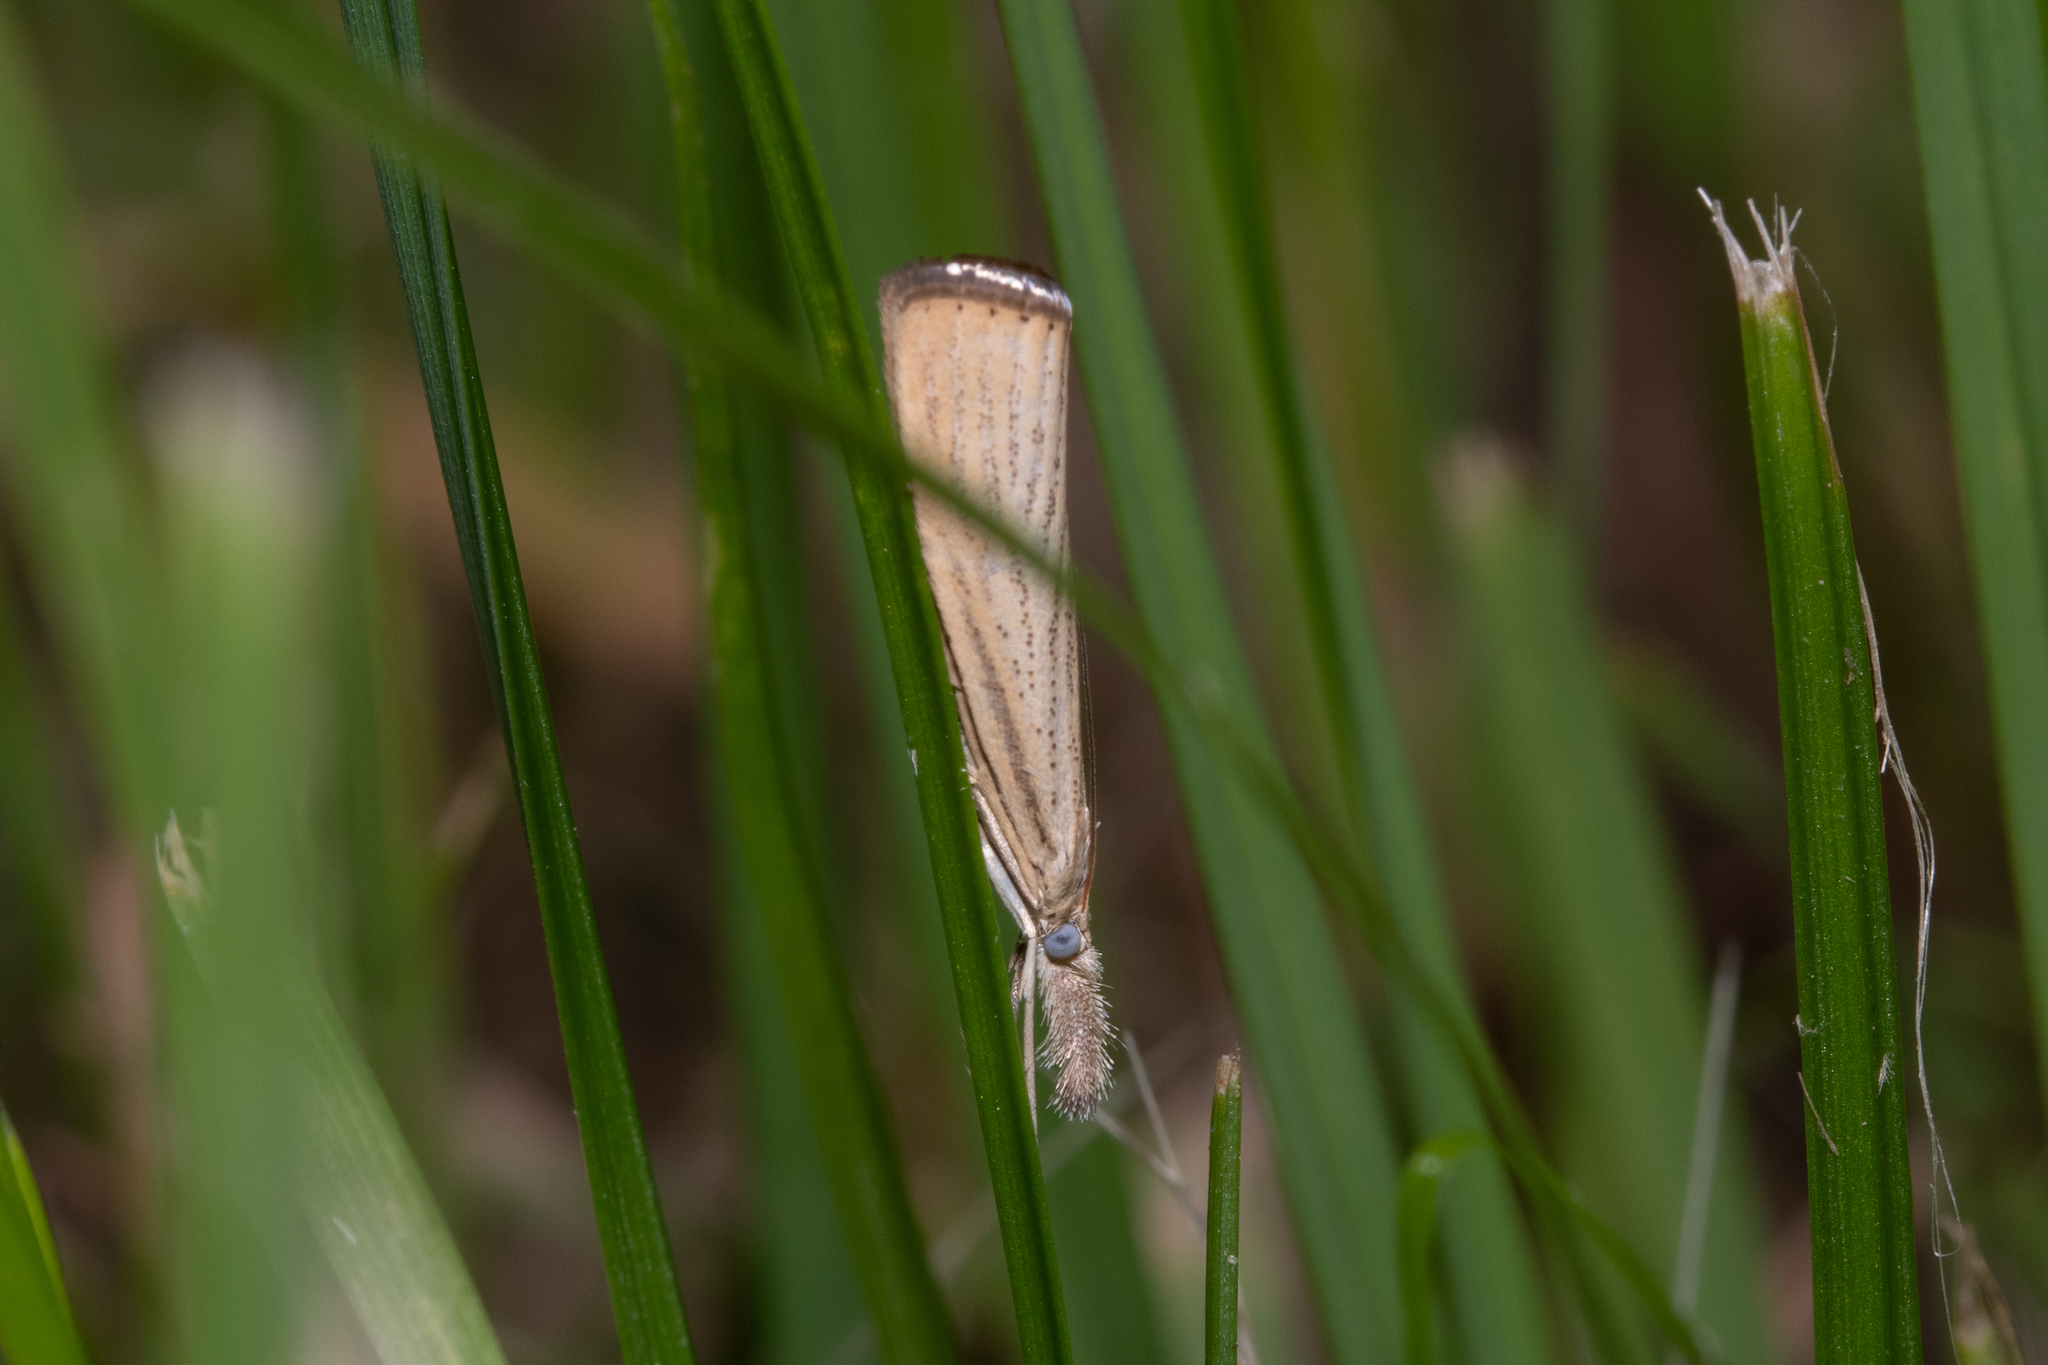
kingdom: Animalia
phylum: Arthropoda
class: Insecta
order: Lepidoptera
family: Crambidae
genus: Agriphila
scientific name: Agriphila straminella
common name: Straw grass-veneer
